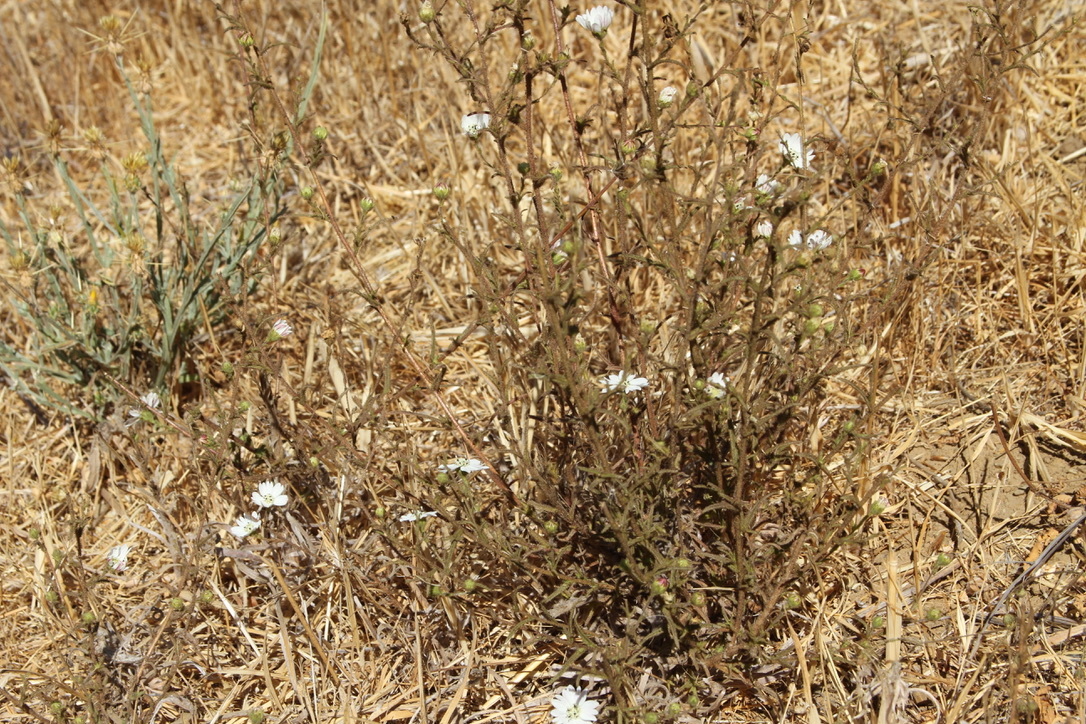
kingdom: Plantae
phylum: Tracheophyta
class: Magnoliopsida
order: Asterales
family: Asteraceae
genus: Hemizonia
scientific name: Hemizonia congesta
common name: Hayfield tarweed
